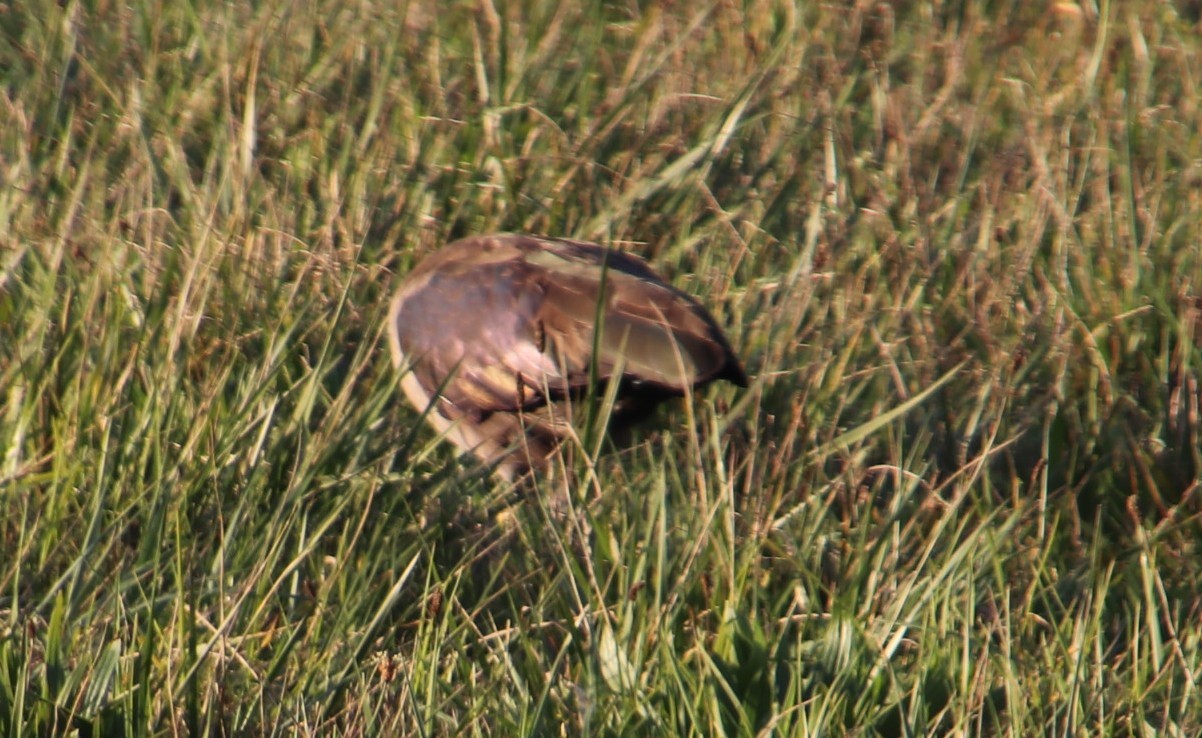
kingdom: Animalia
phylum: Chordata
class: Aves
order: Pelecaniformes
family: Threskiornithidae
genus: Bostrychia
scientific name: Bostrychia hagedash
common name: Hadada ibis
